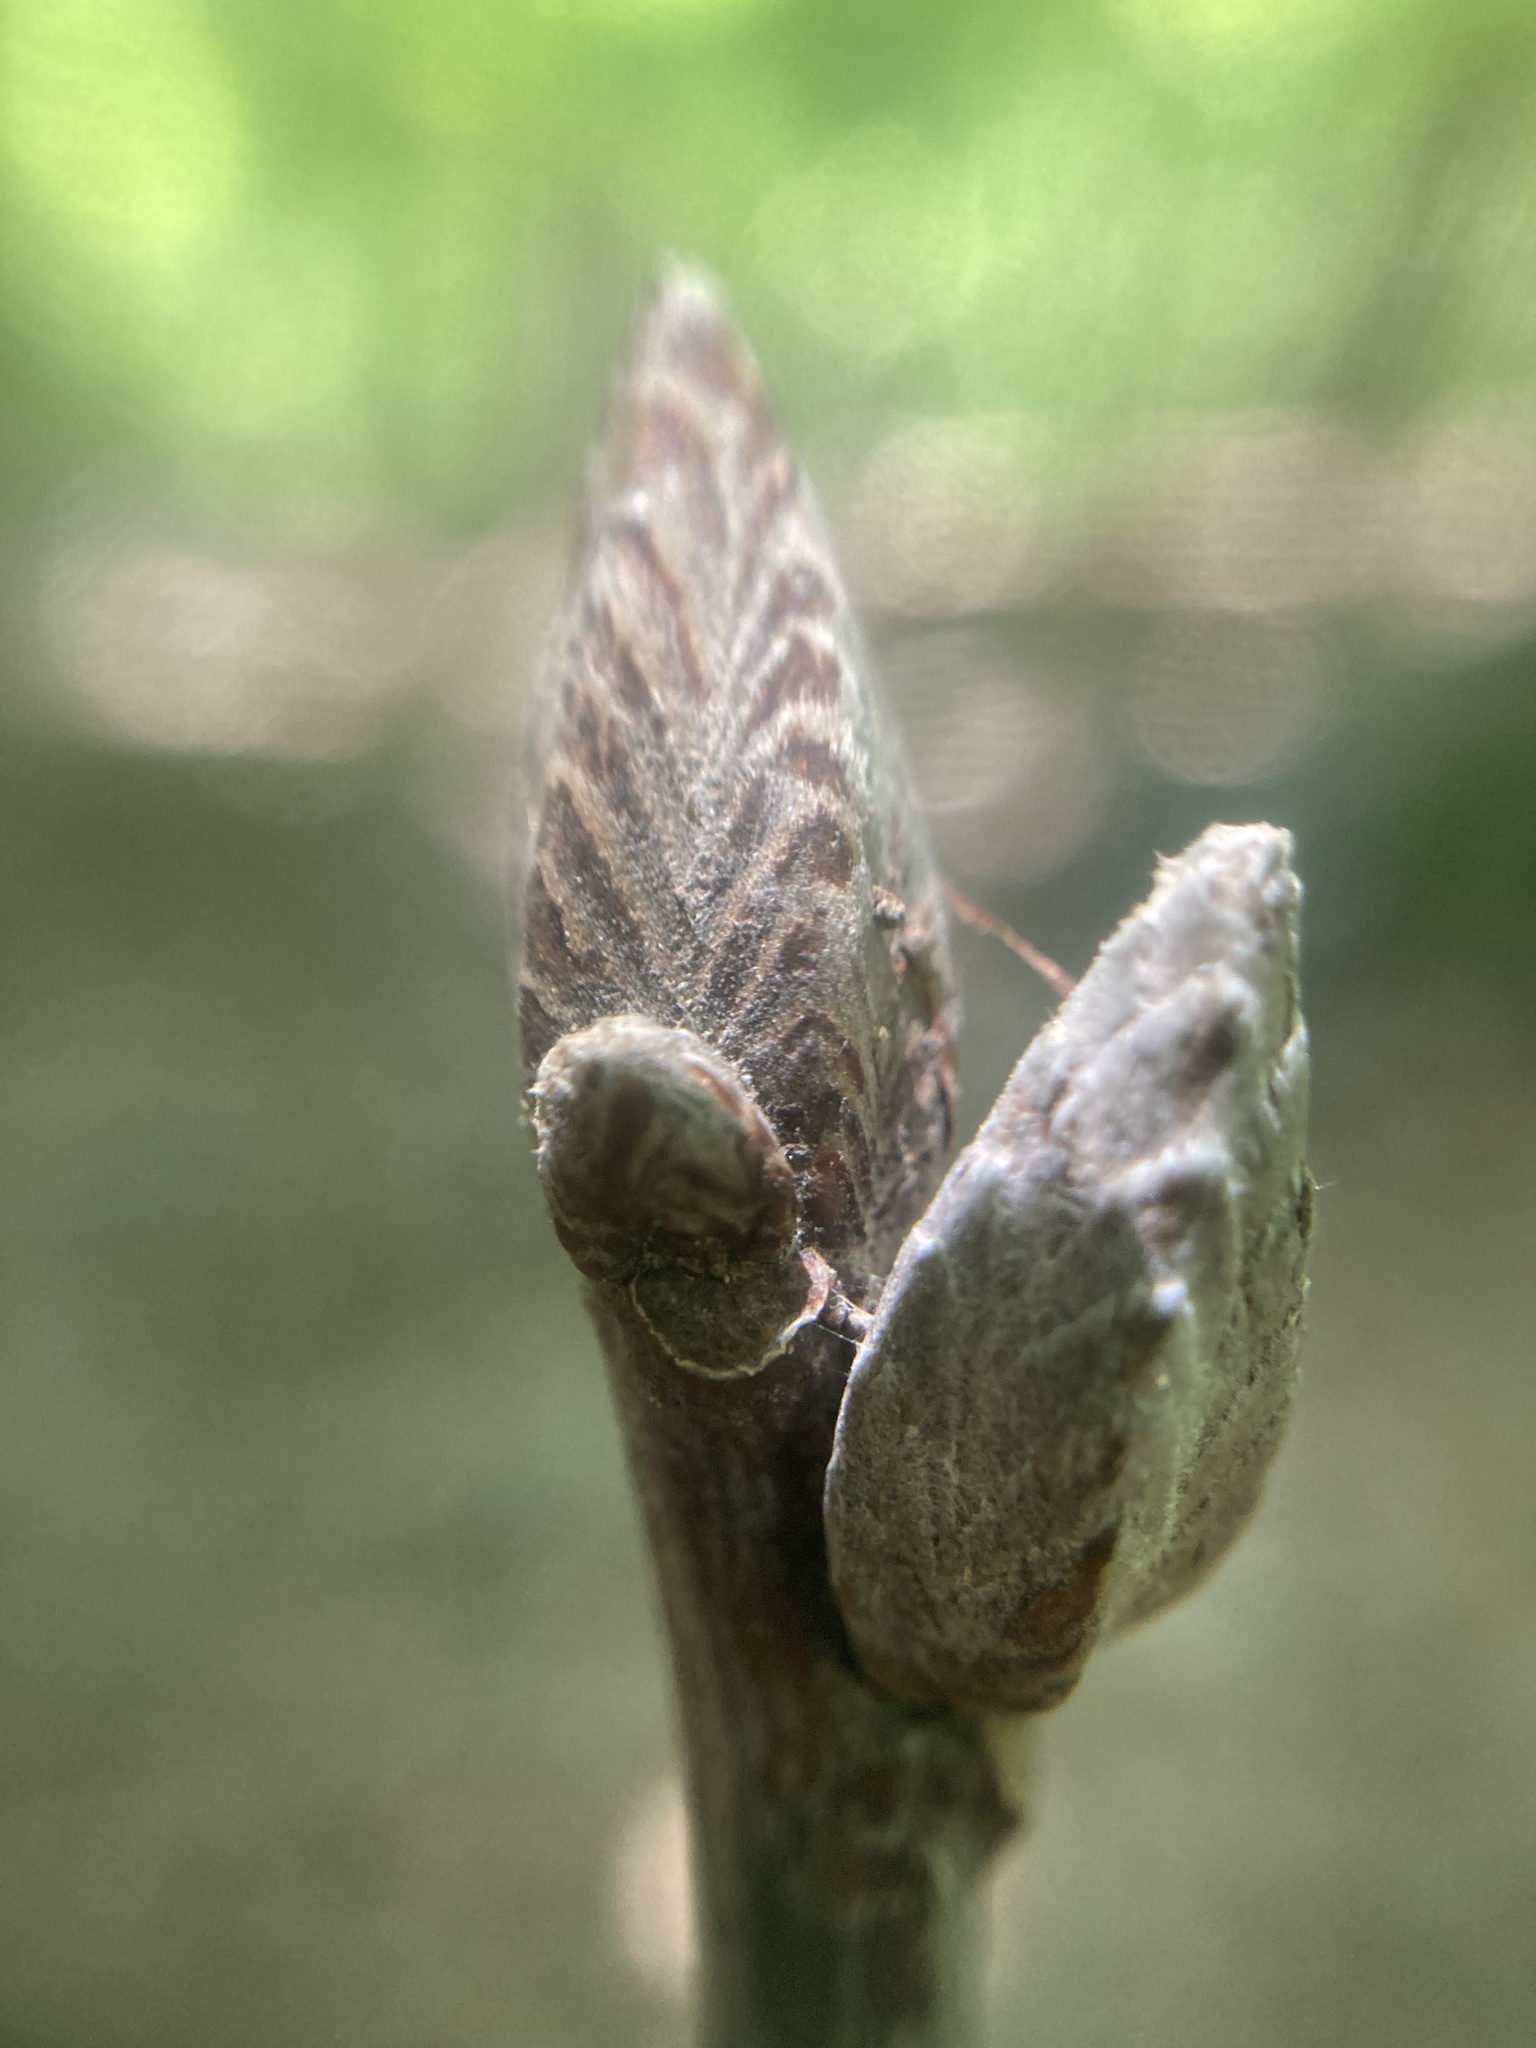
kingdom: Plantae
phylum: Tracheophyta
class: Magnoliopsida
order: Fagales
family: Fagaceae
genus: Quercus
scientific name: Quercus velutina
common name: Black oak
